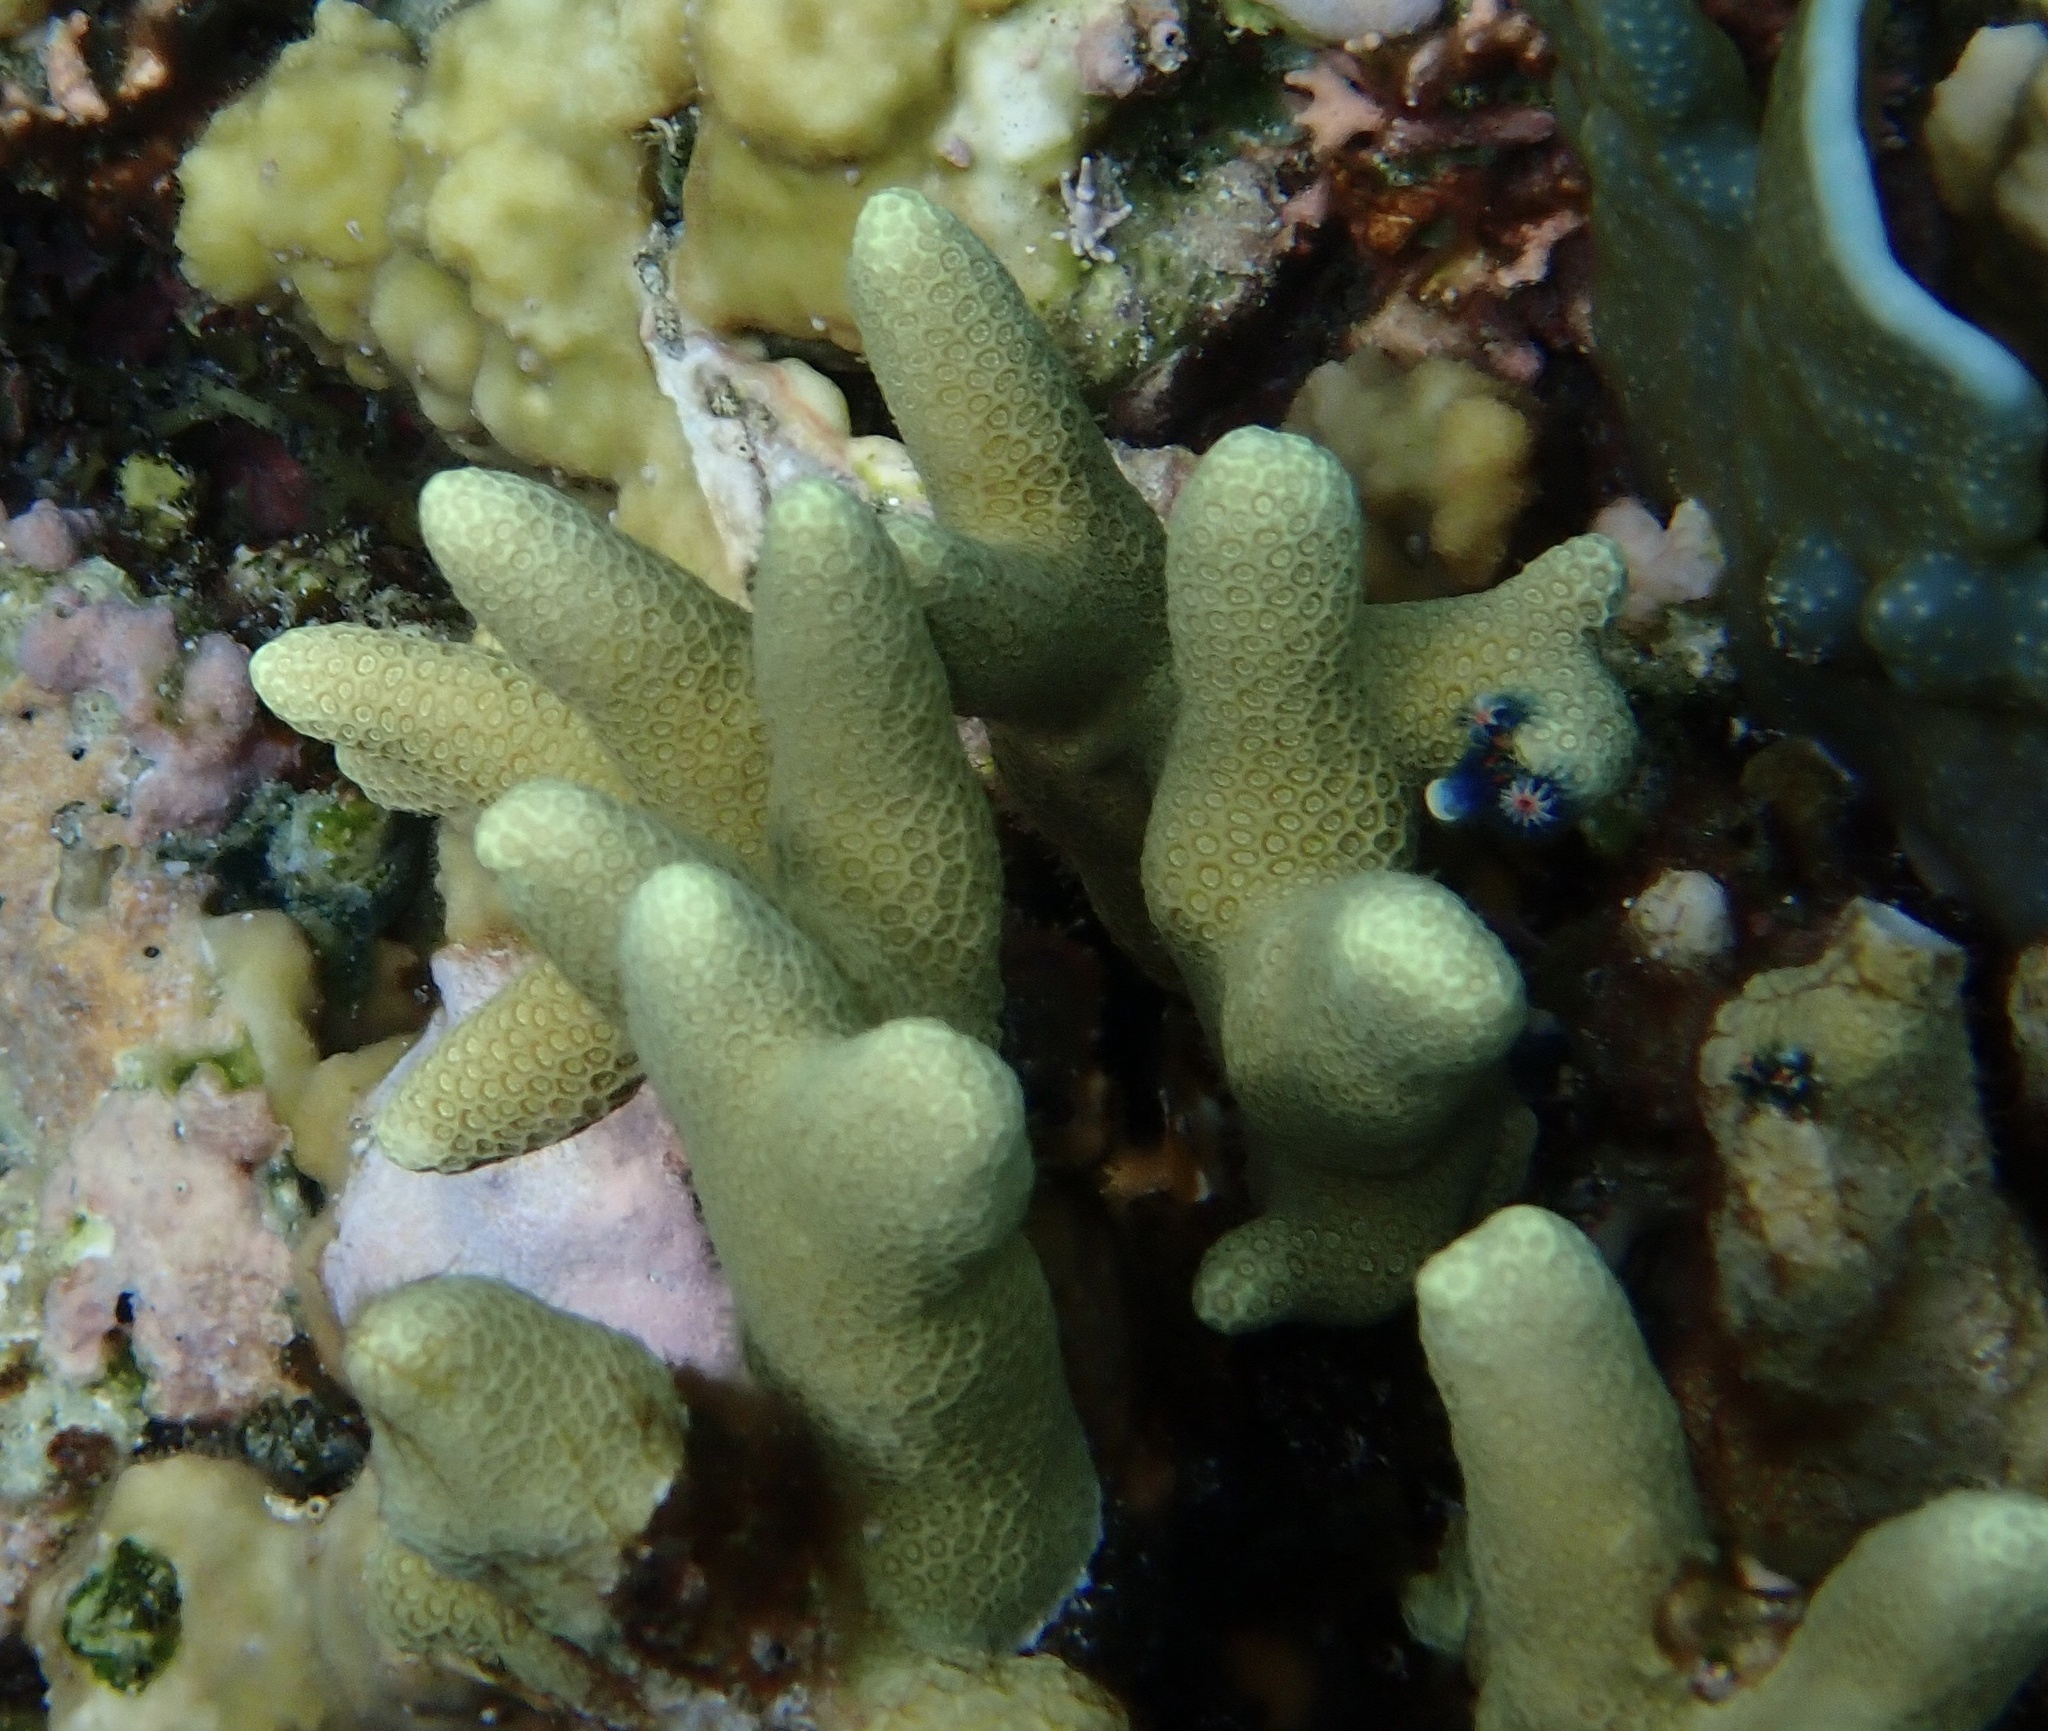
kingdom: Animalia
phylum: Cnidaria
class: Anthozoa
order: Scleractinia
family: Poritidae
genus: Porites
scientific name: Porites cylindrica
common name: Hump coral
